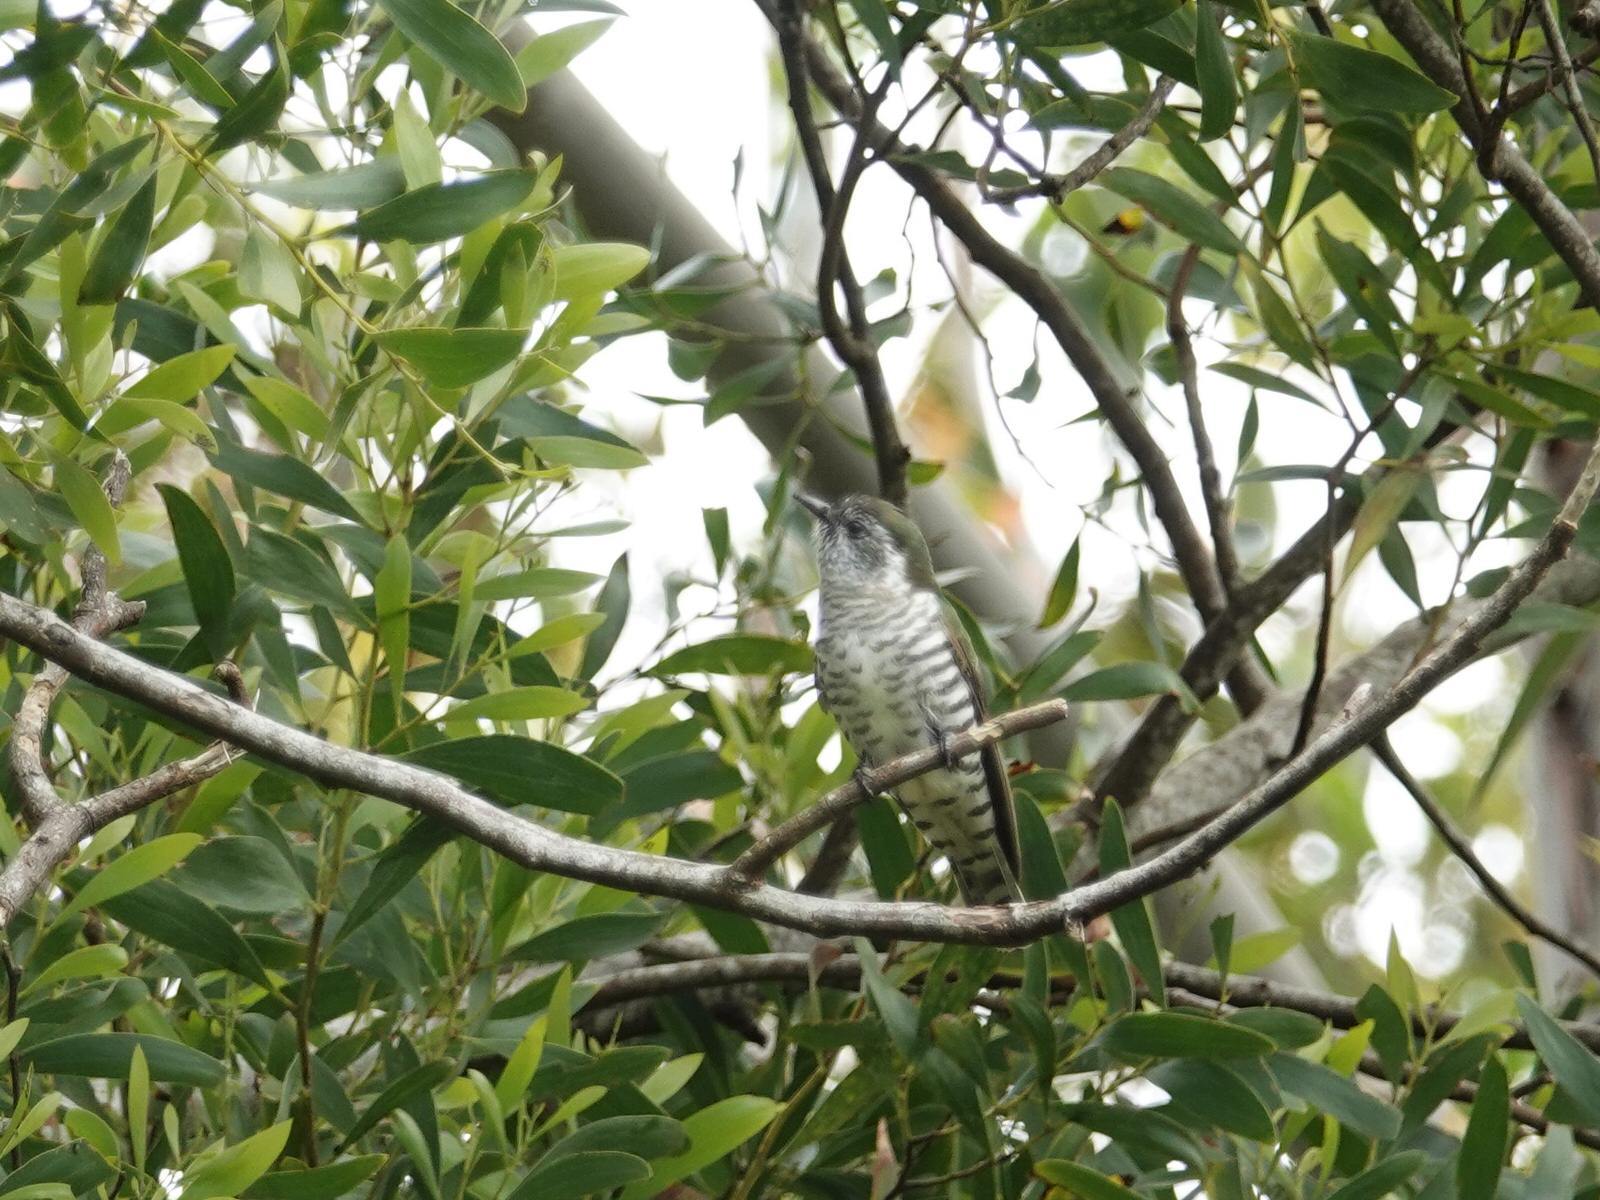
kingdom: Animalia
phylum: Chordata
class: Aves
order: Cuculiformes
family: Cuculidae
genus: Chrysococcyx
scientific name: Chrysococcyx lucidus
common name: Shining bronze cuckoo
